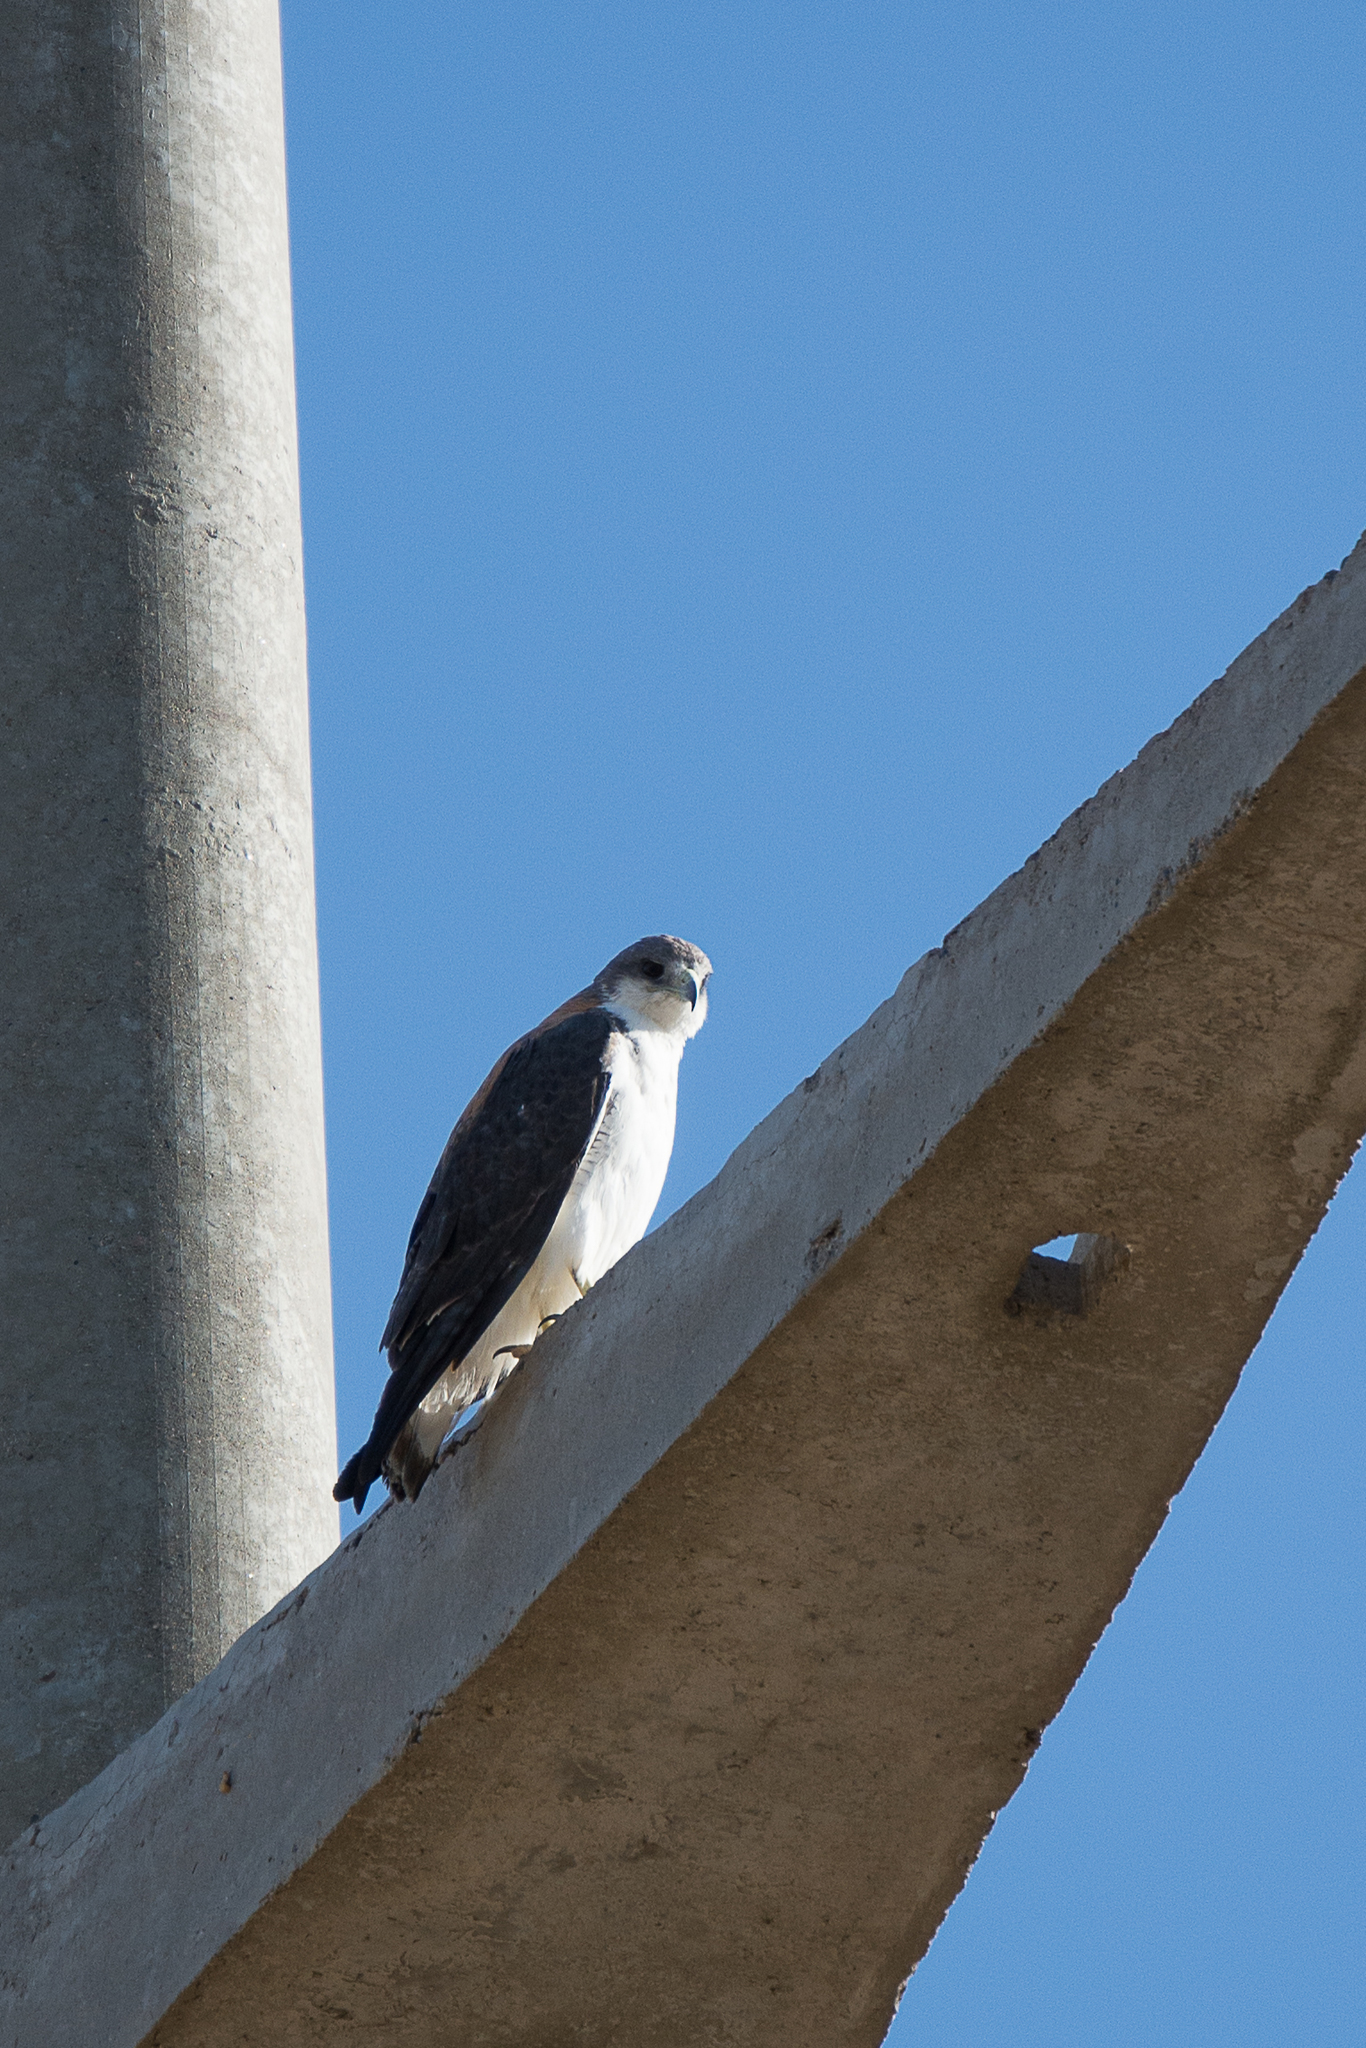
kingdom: Animalia
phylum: Chordata
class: Aves
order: Accipitriformes
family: Accipitridae
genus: Buteo
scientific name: Buteo polyosoma
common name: Variable hawk
